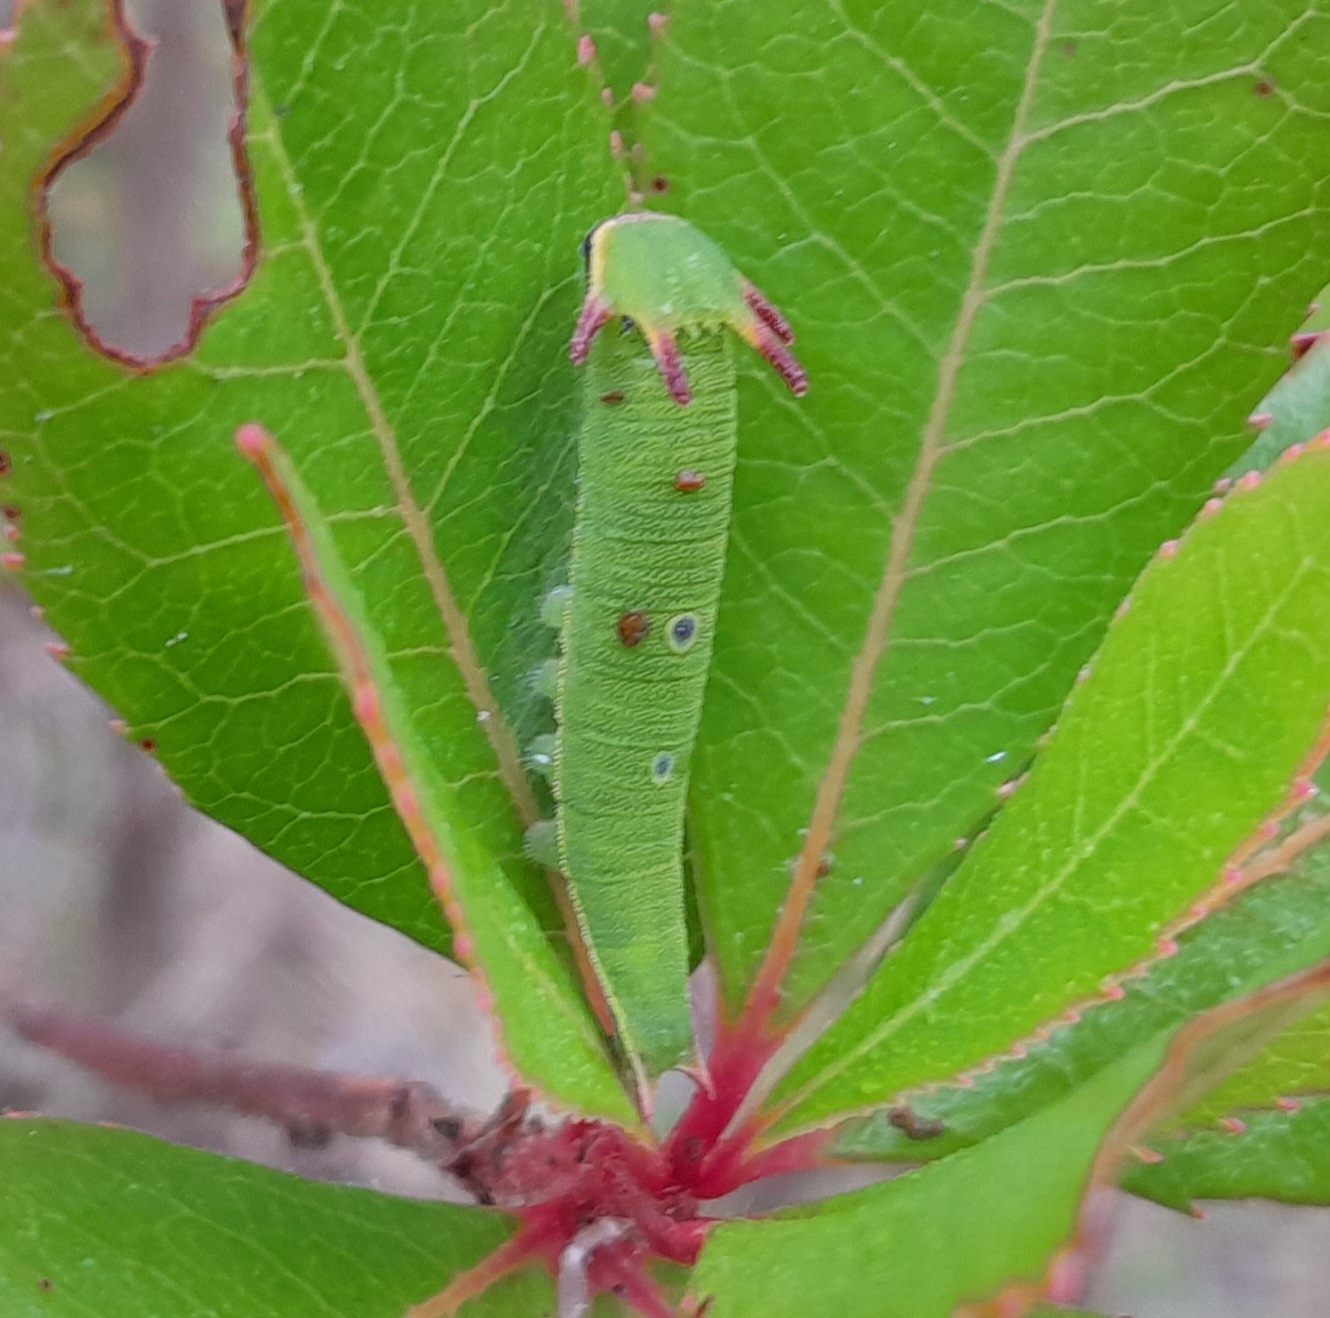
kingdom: Animalia
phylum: Arthropoda
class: Insecta
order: Lepidoptera
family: Nymphalidae
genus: Charaxes
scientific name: Charaxes jasius
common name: Two tailed pasha
